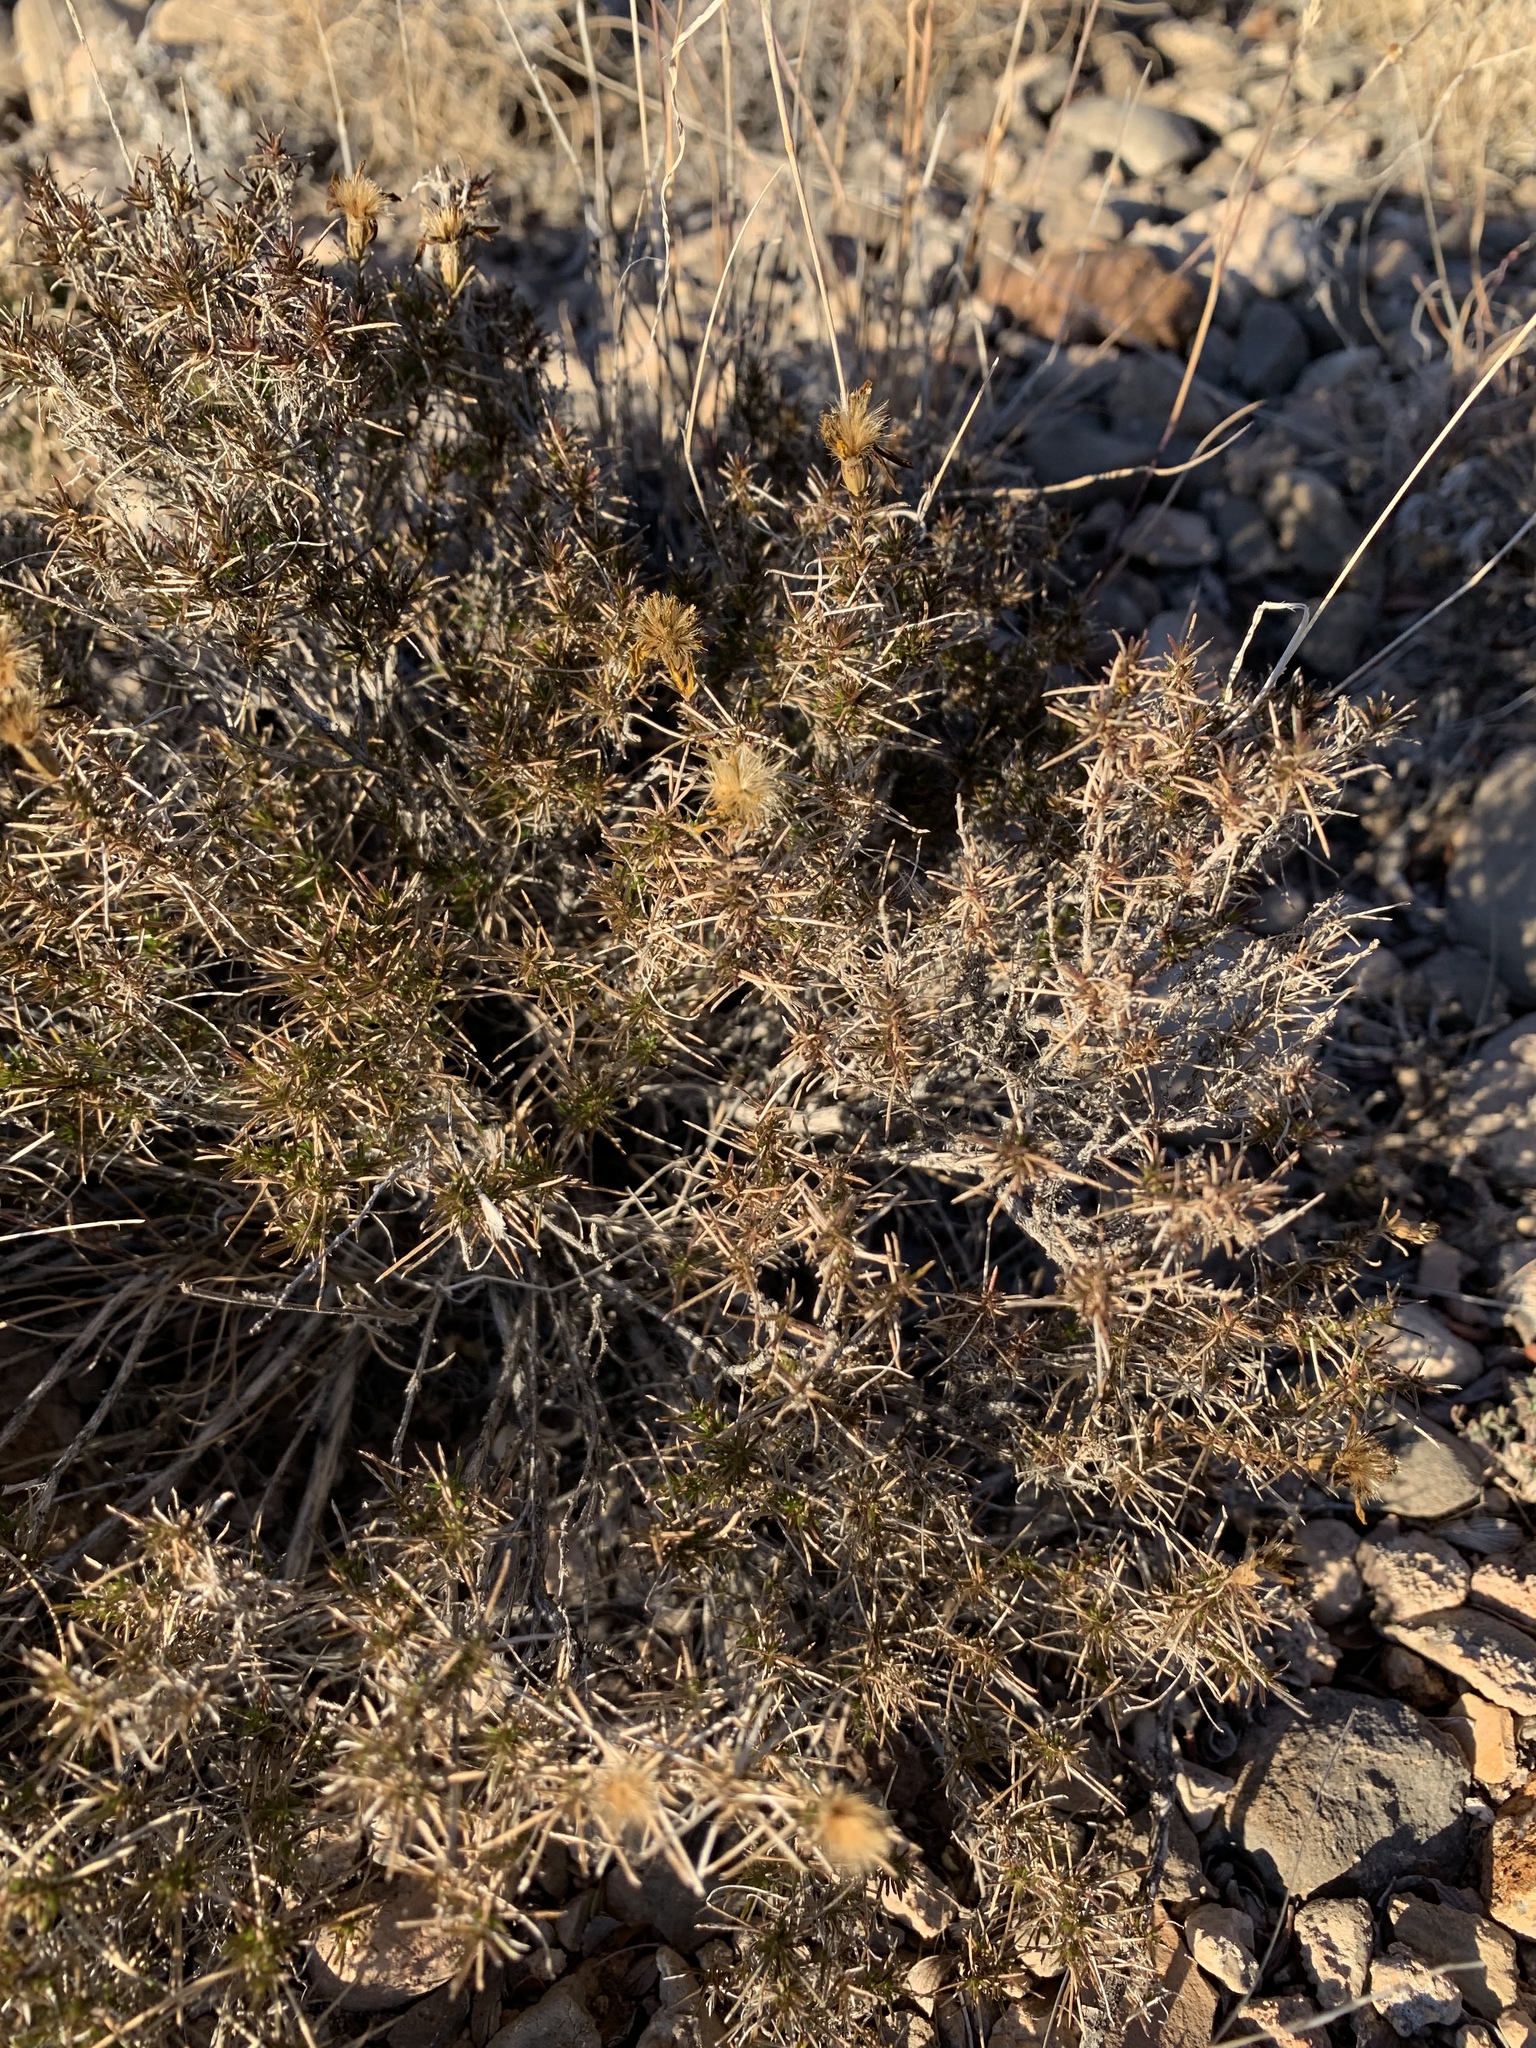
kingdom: Plantae
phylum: Tracheophyta
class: Magnoliopsida
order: Asterales
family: Asteraceae
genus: Thymophylla
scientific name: Thymophylla acerosa
